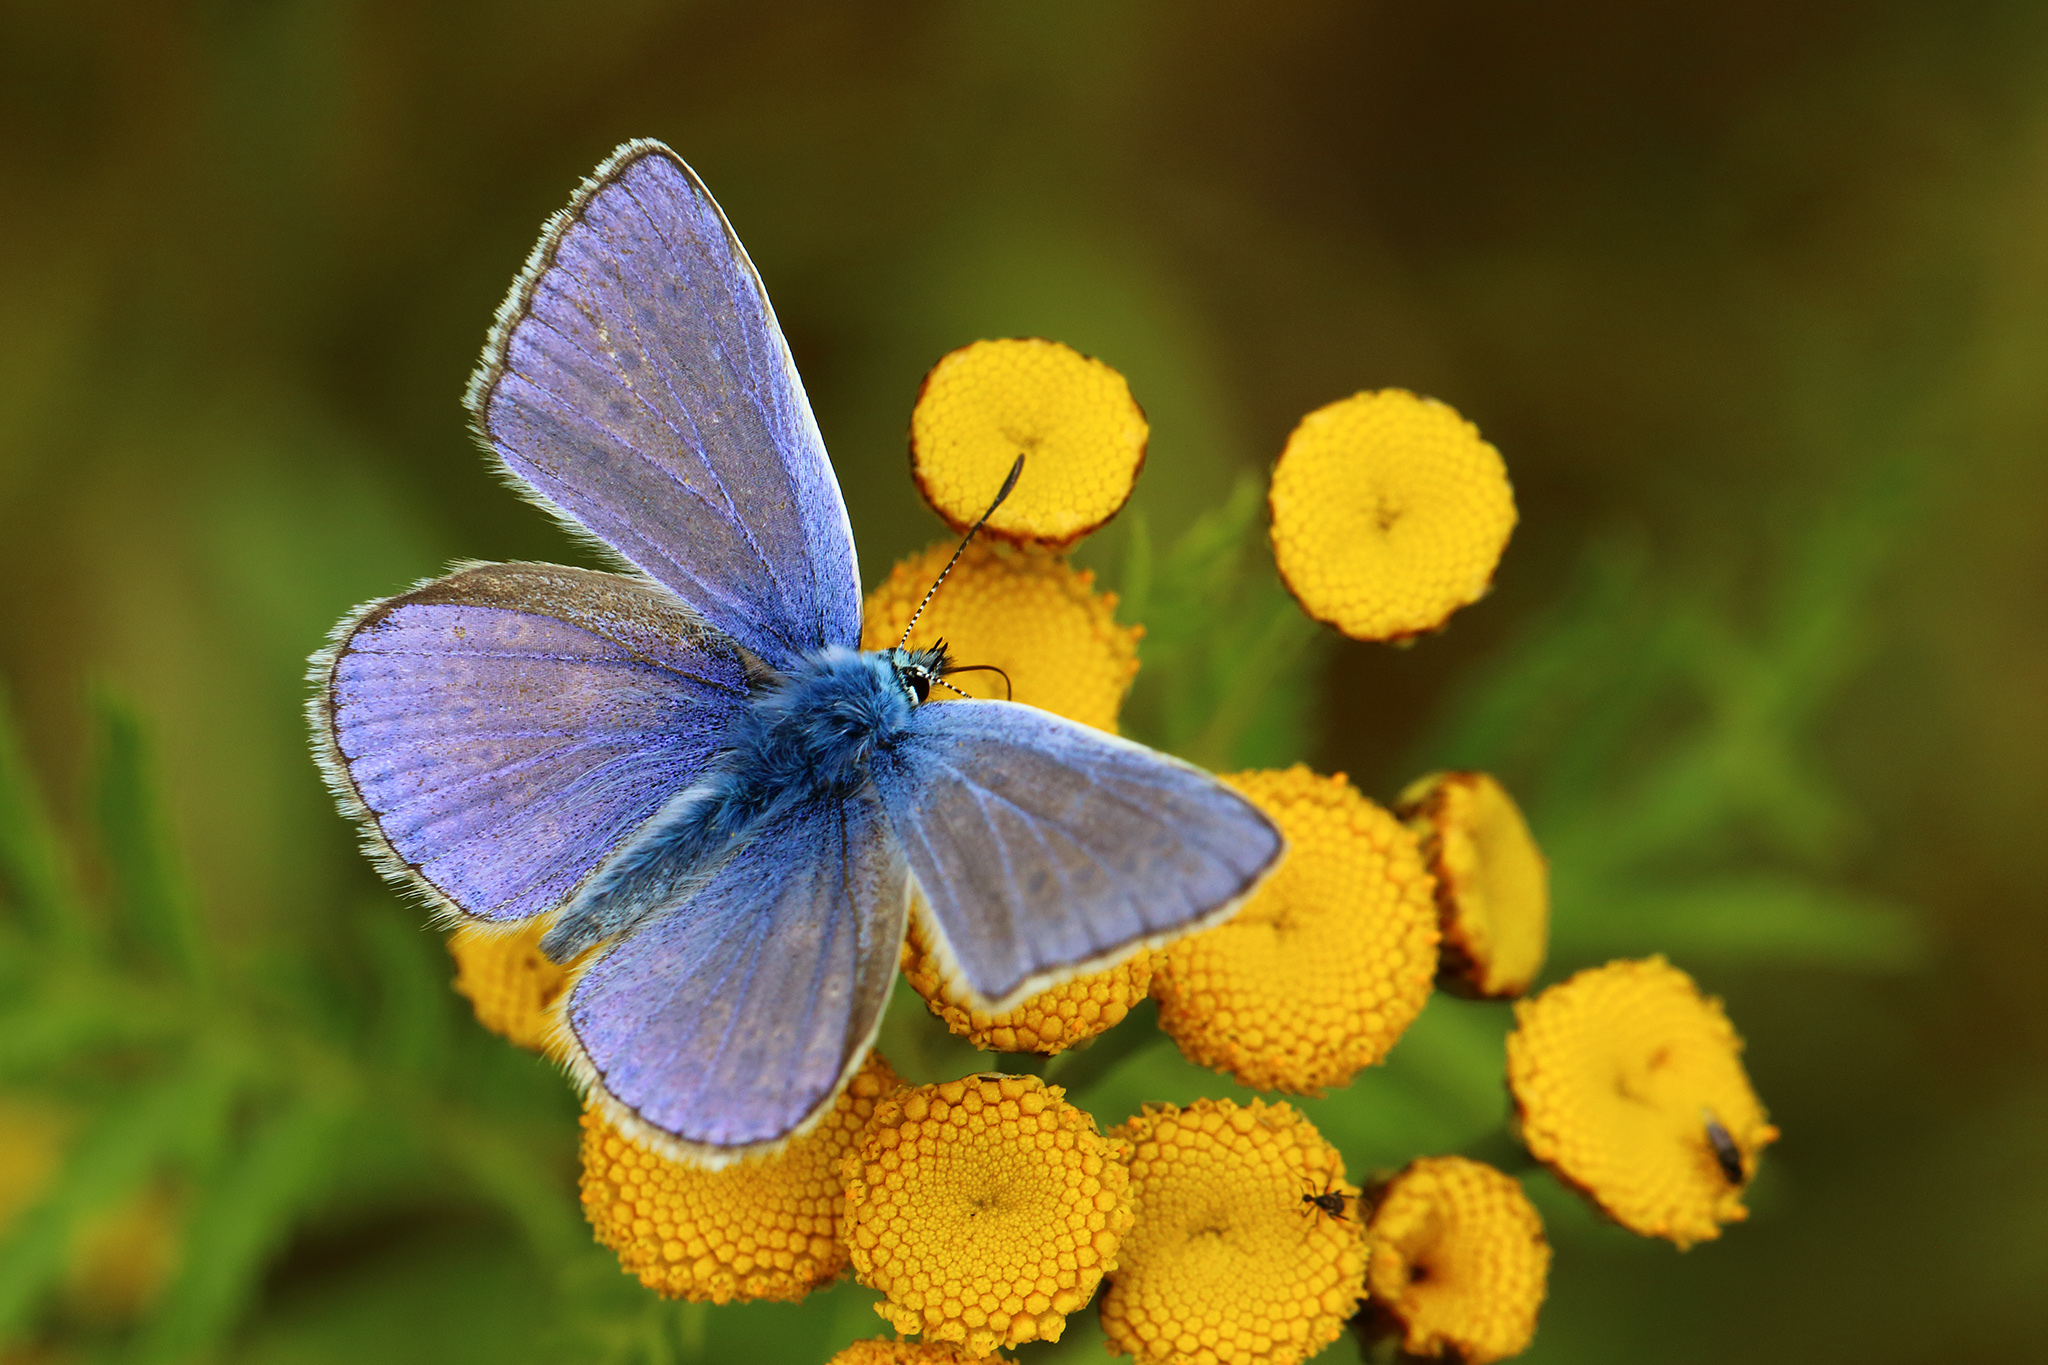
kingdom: Animalia
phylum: Arthropoda
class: Insecta
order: Lepidoptera
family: Lycaenidae
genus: Polyommatus
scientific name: Polyommatus icarus
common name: Common blue
